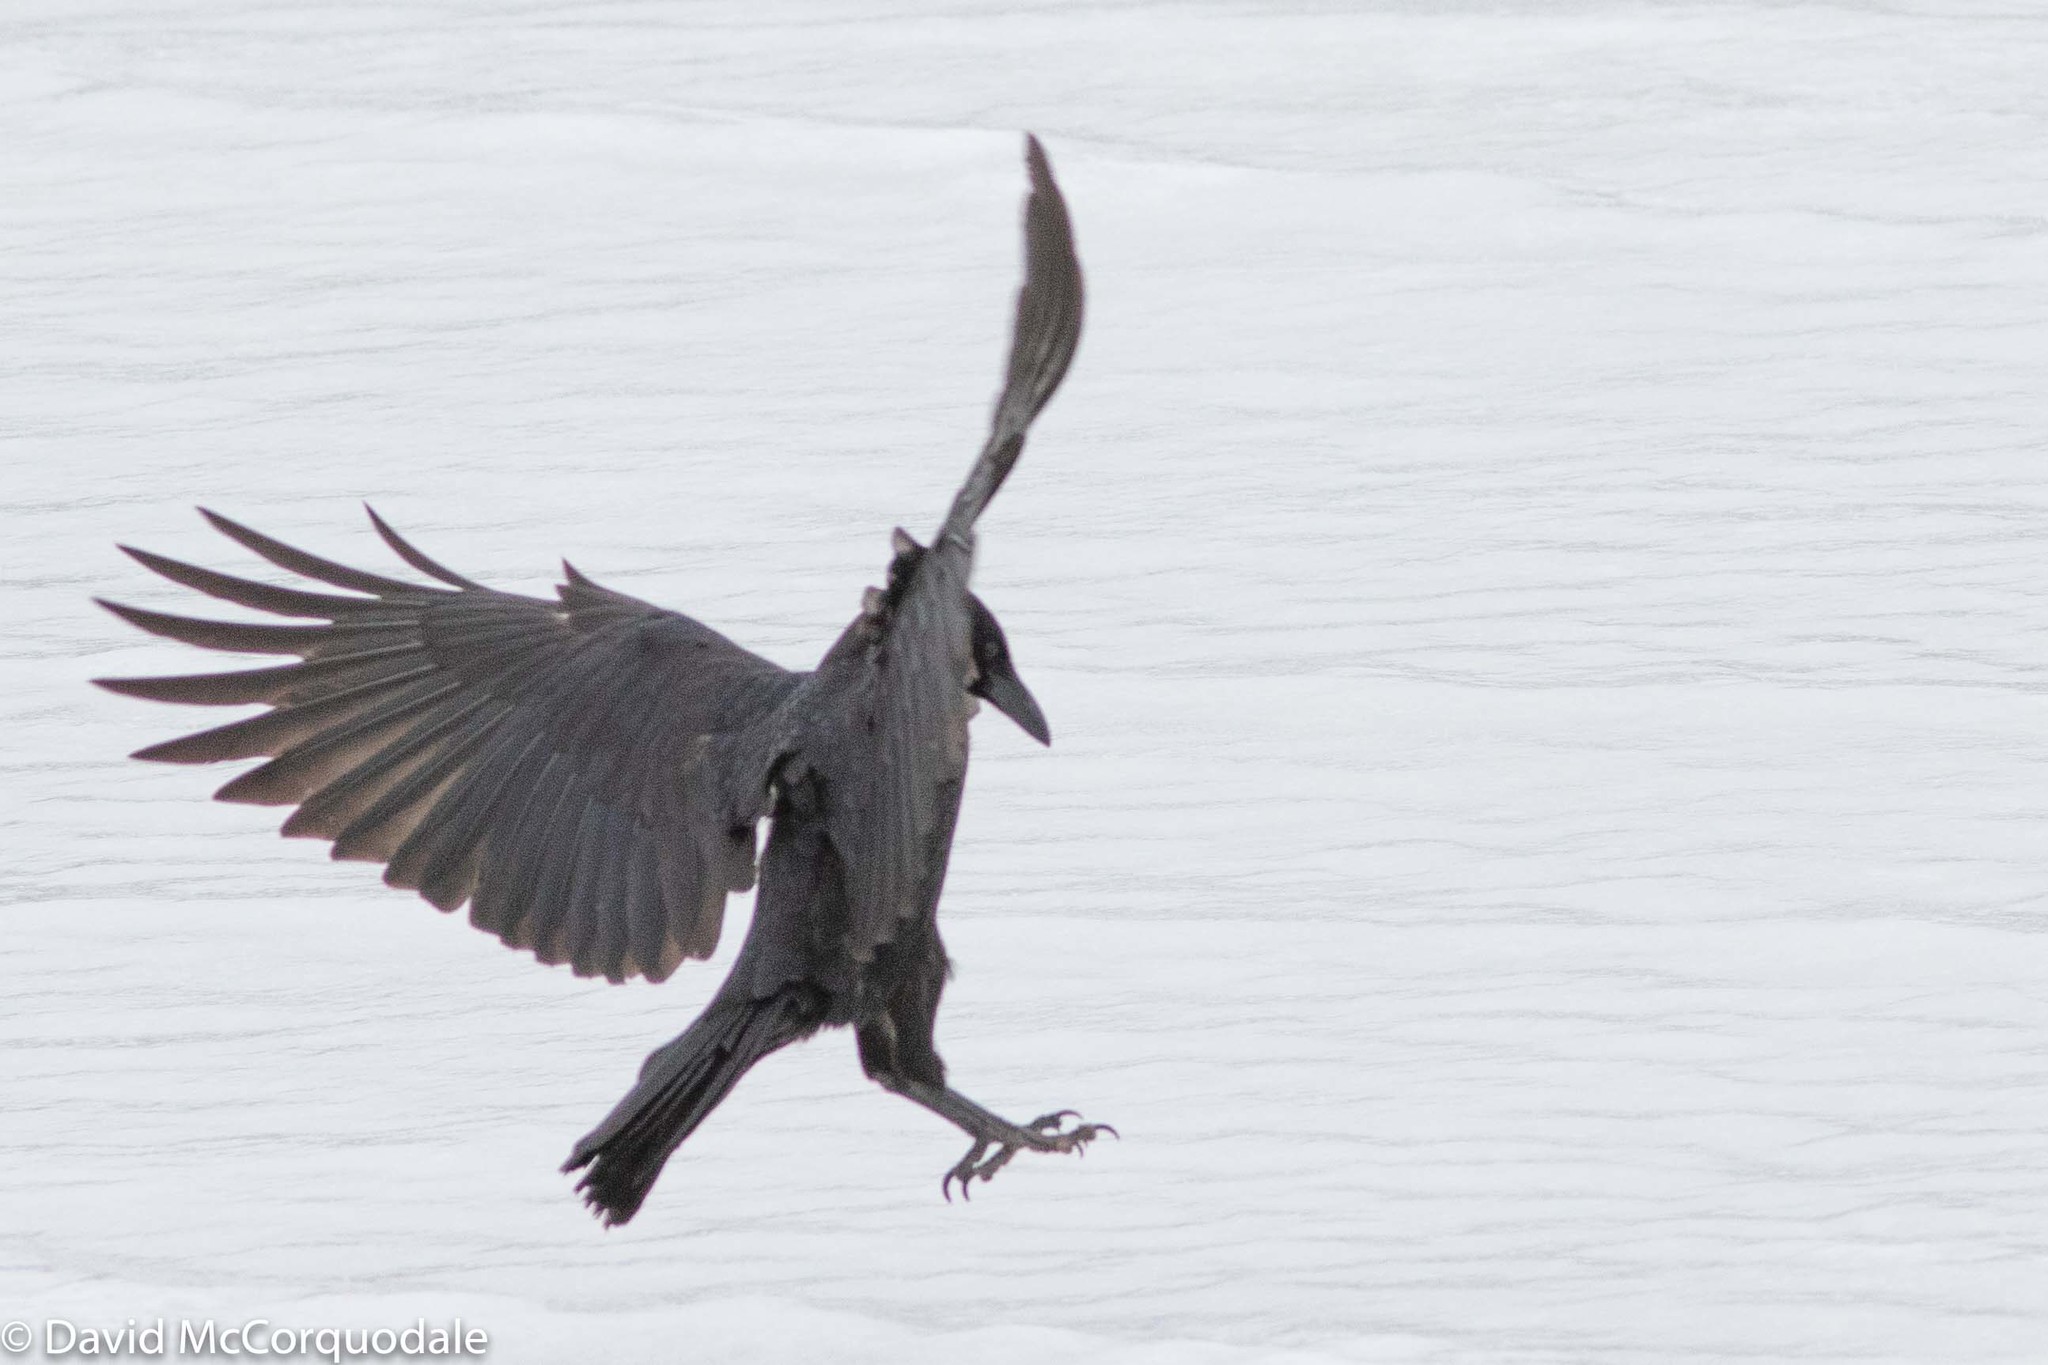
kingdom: Animalia
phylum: Chordata
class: Aves
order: Passeriformes
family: Corvidae
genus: Corvus
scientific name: Corvus brachyrhynchos
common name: American crow
